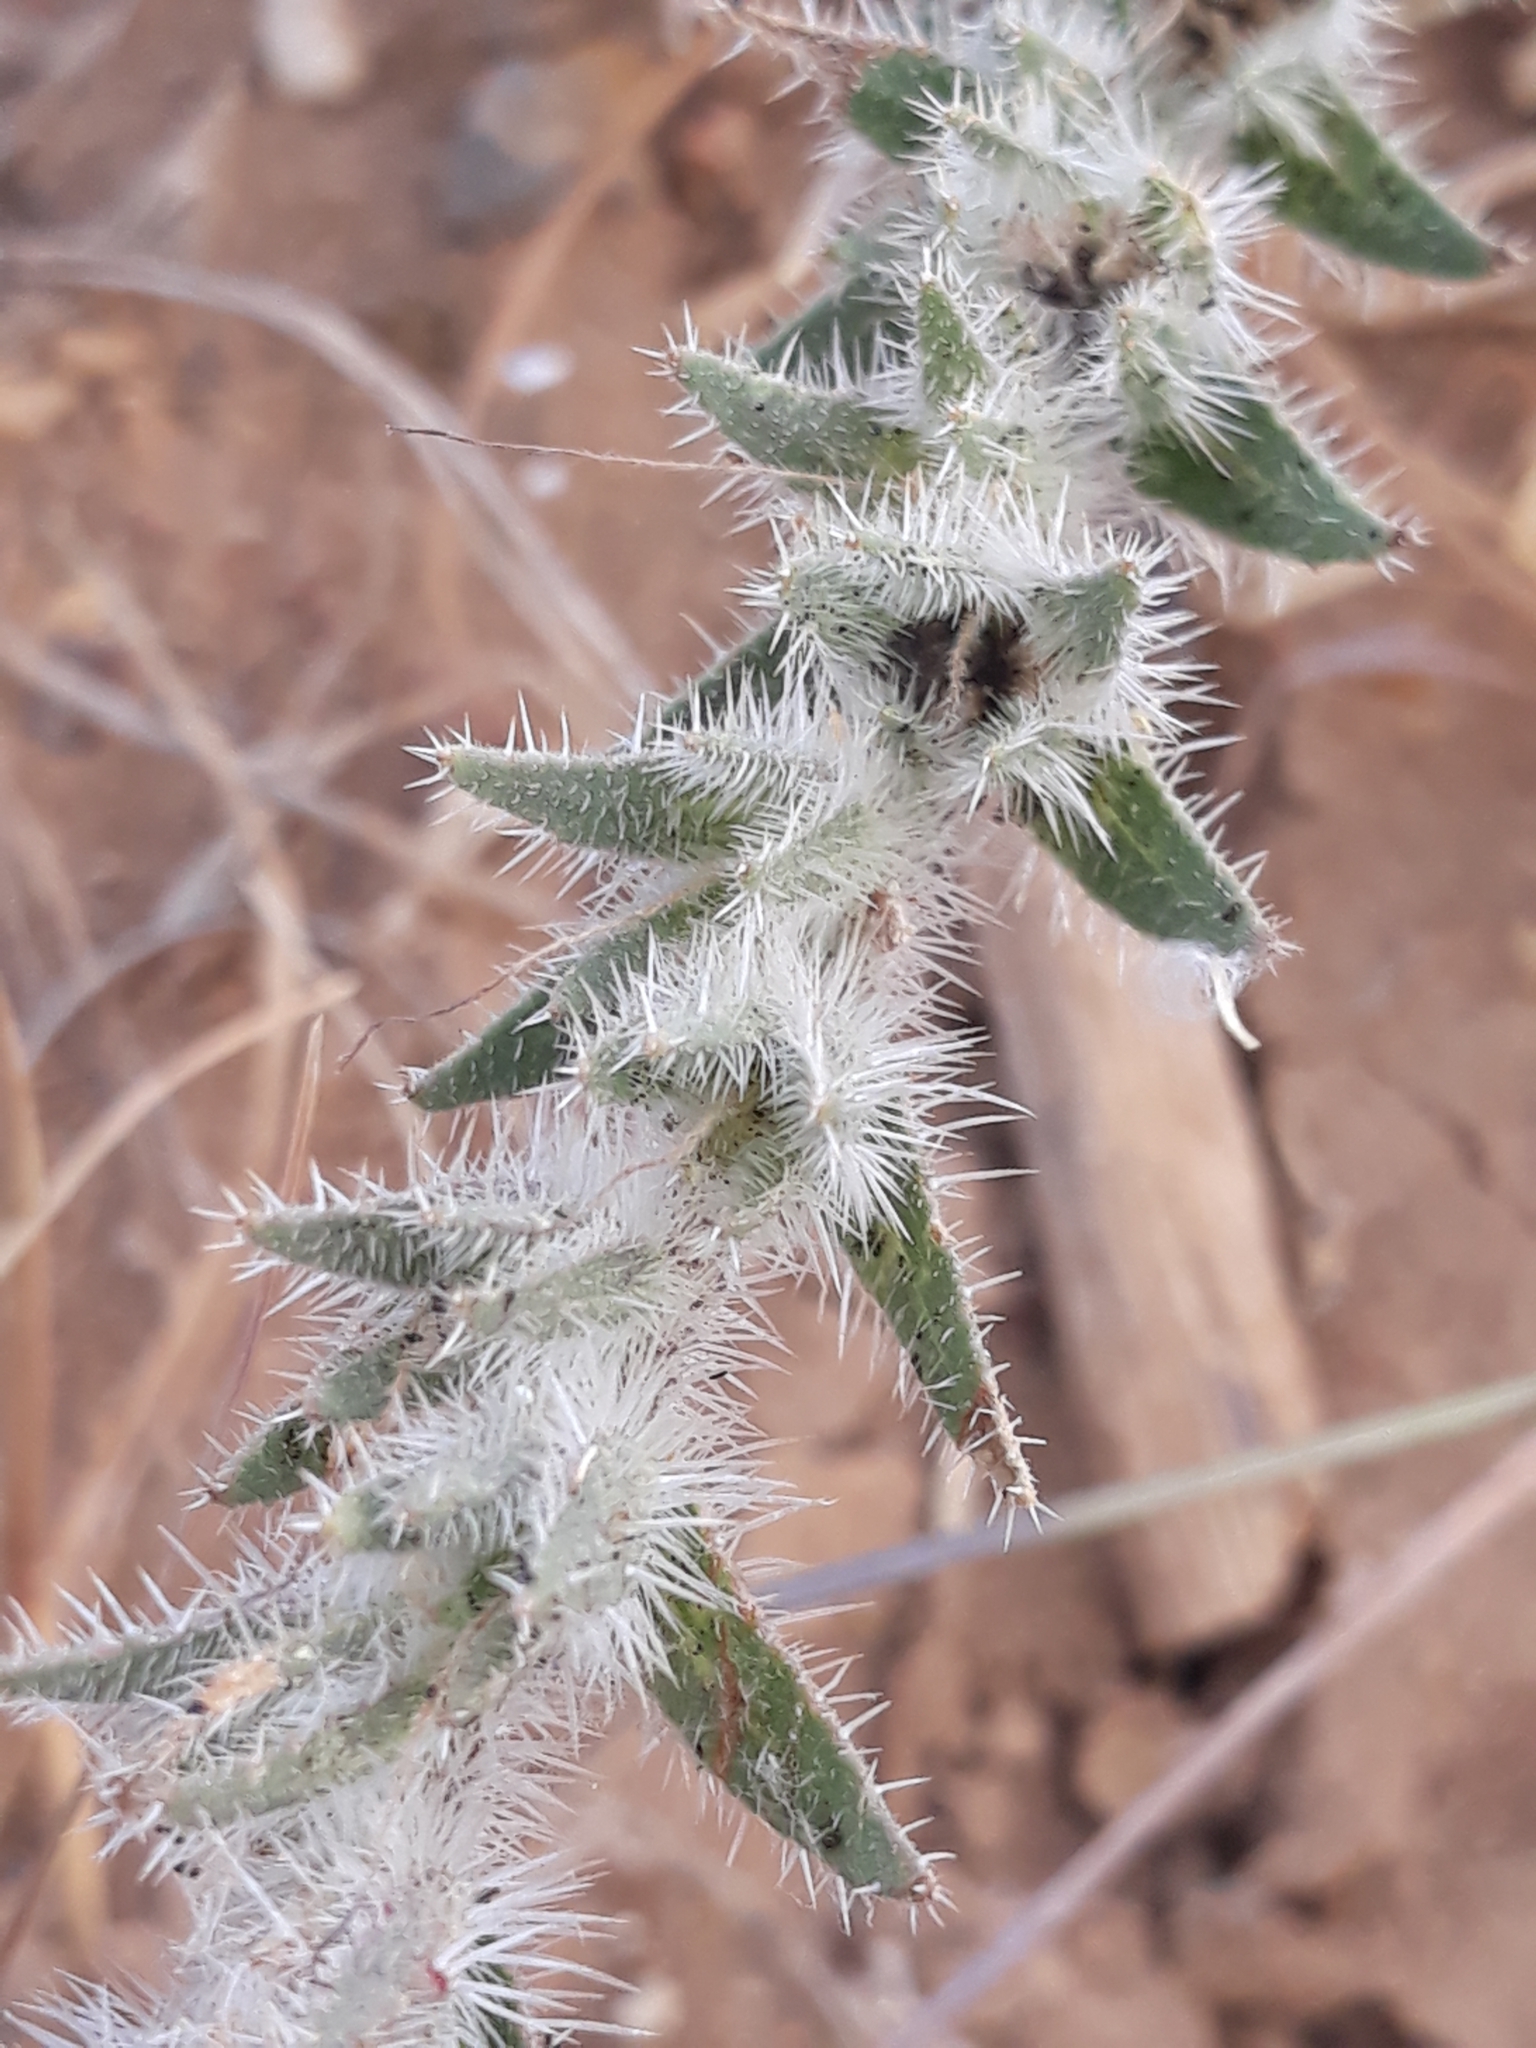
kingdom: Plantae
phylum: Tracheophyta
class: Magnoliopsida
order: Boraginales
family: Boraginaceae
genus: Echium
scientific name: Echium asperrimum
